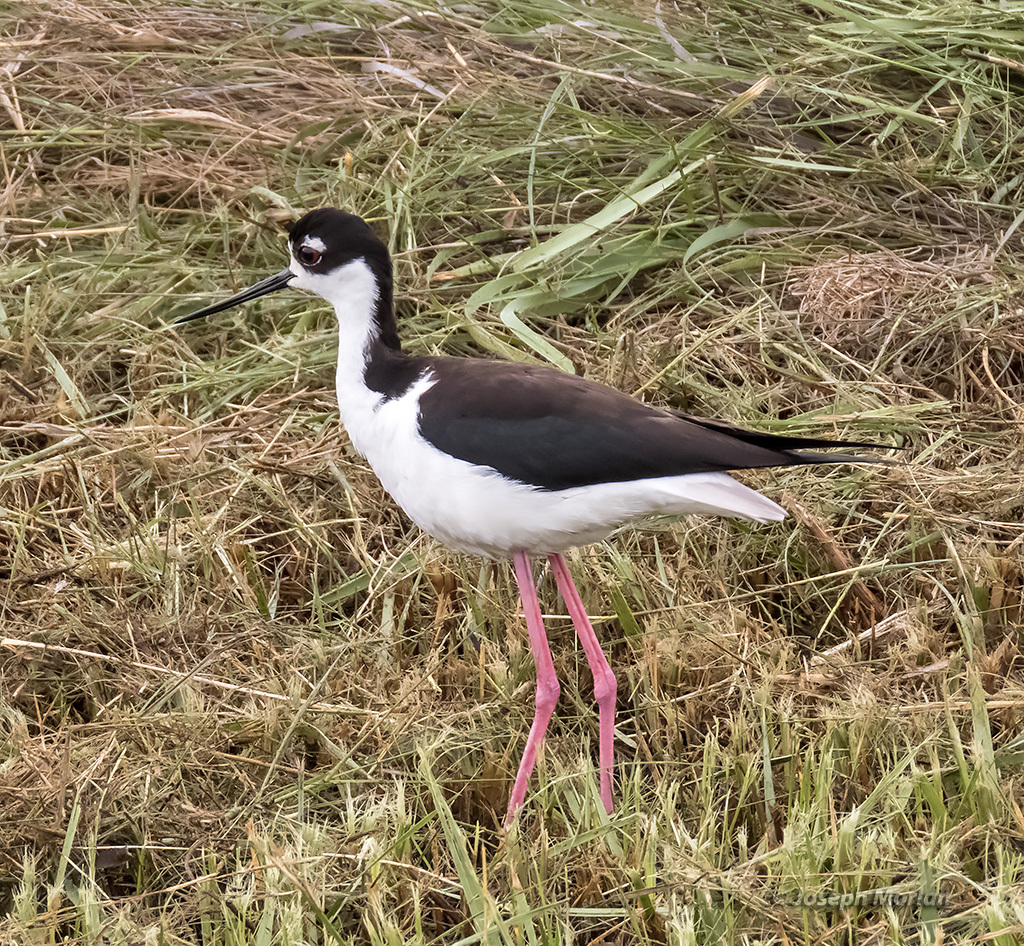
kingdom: Animalia
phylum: Chordata
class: Aves
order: Charadriiformes
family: Recurvirostridae
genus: Himantopus
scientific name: Himantopus mexicanus
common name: Black-necked stilt
